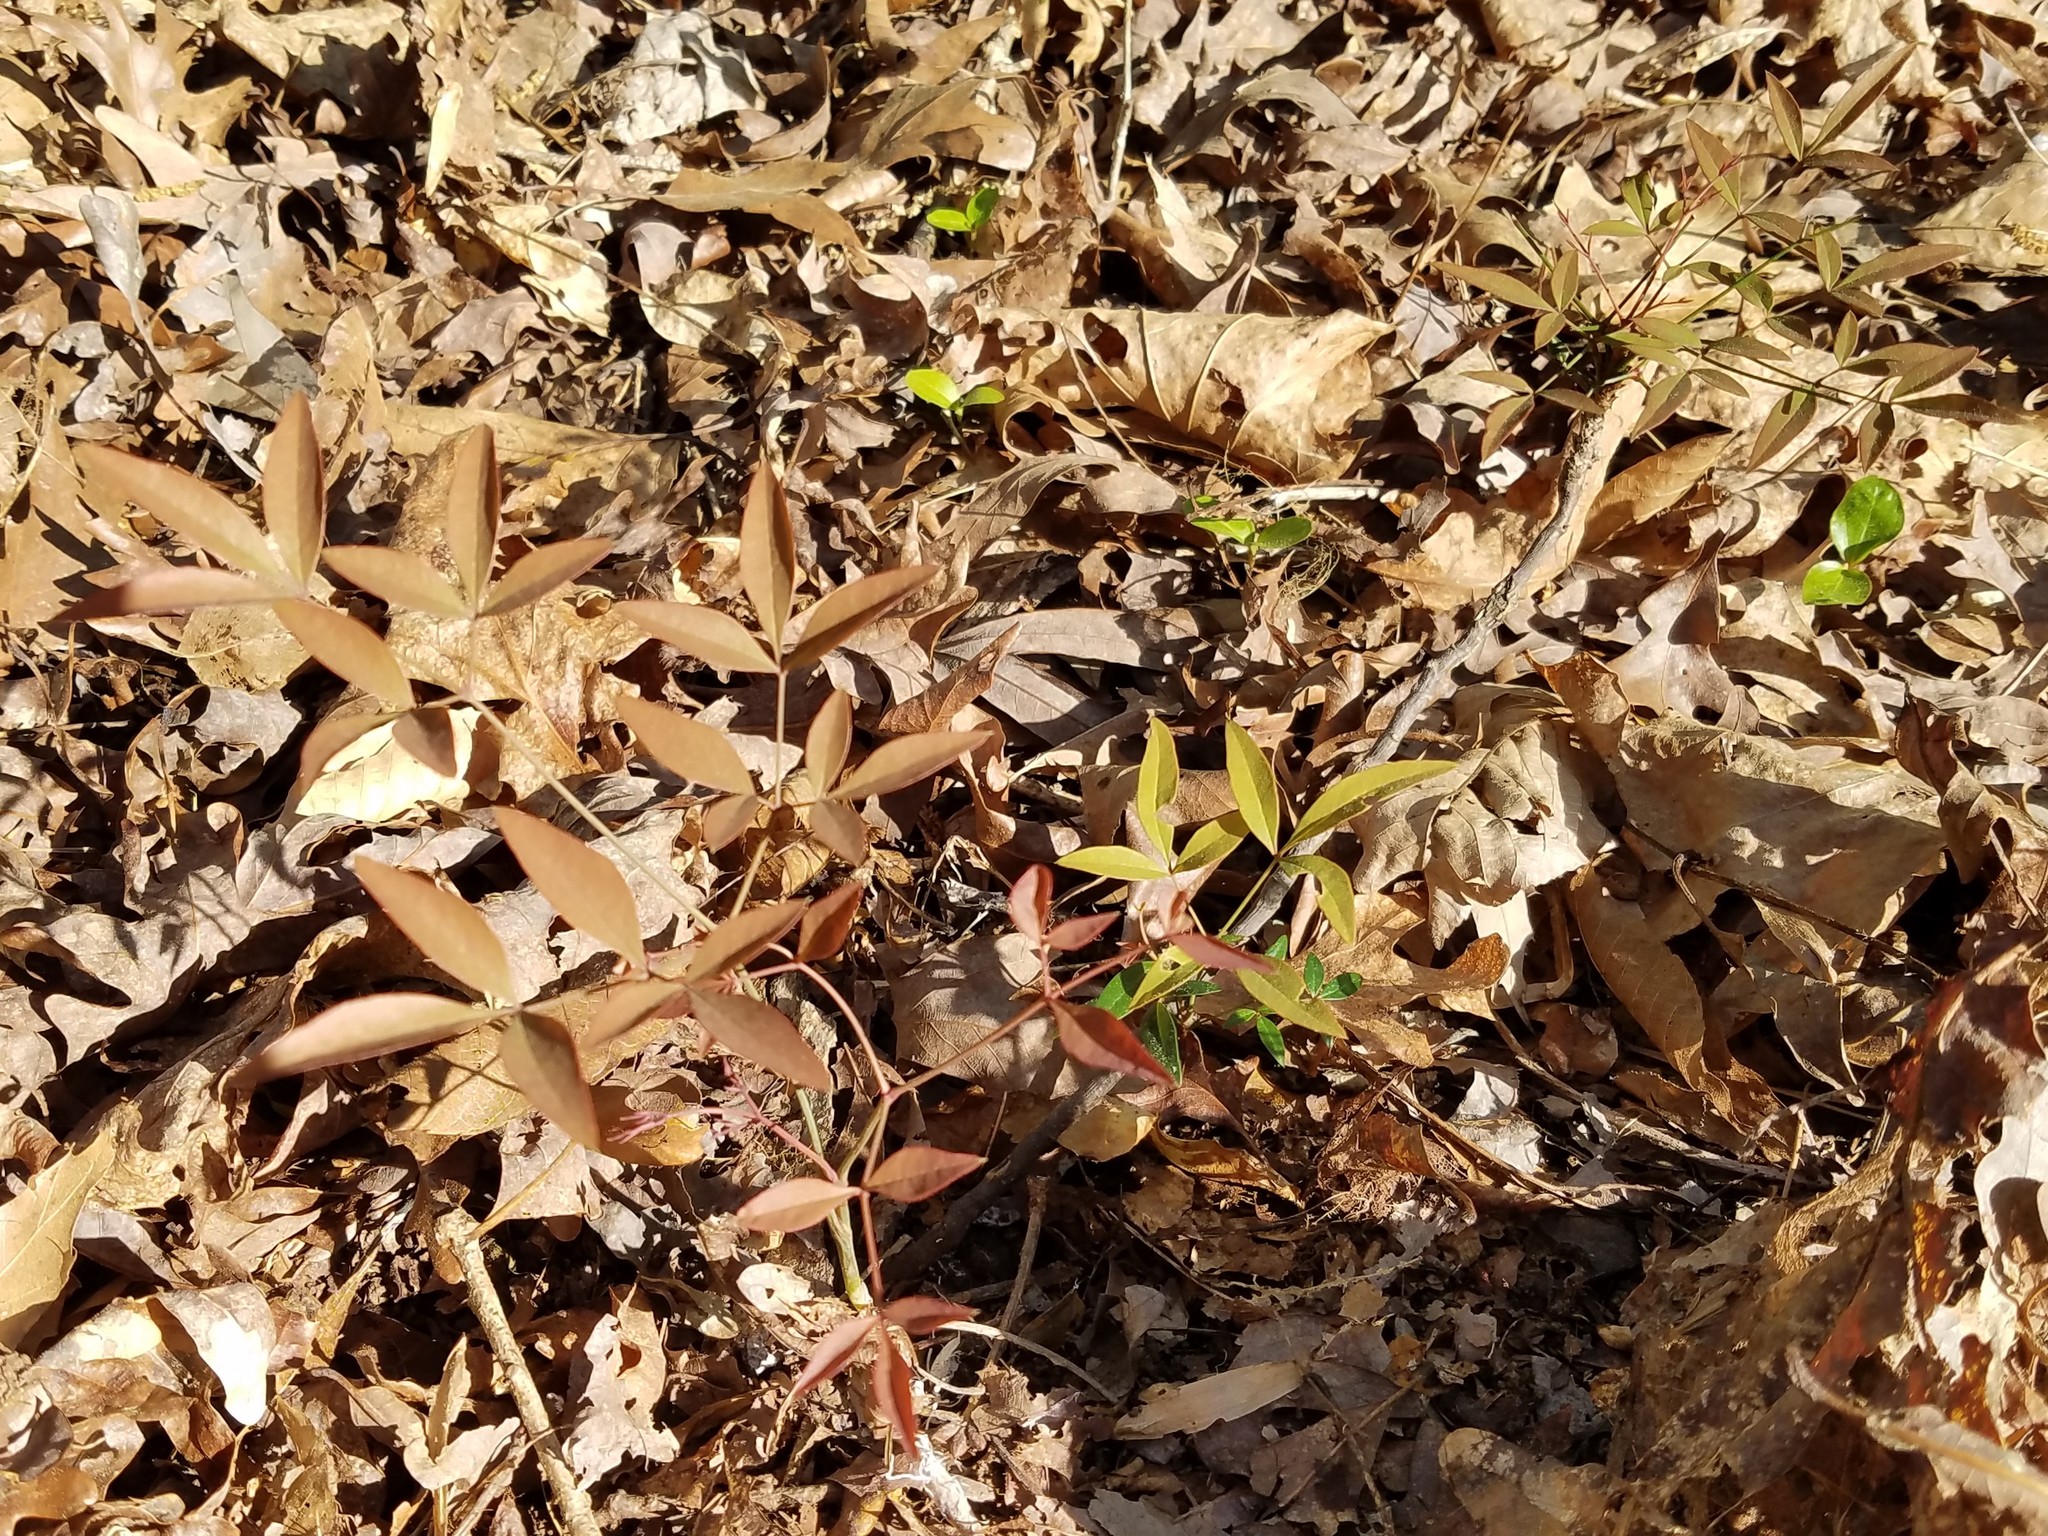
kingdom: Plantae
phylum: Tracheophyta
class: Magnoliopsida
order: Ranunculales
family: Berberidaceae
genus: Nandina
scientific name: Nandina domestica
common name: Sacred bamboo
